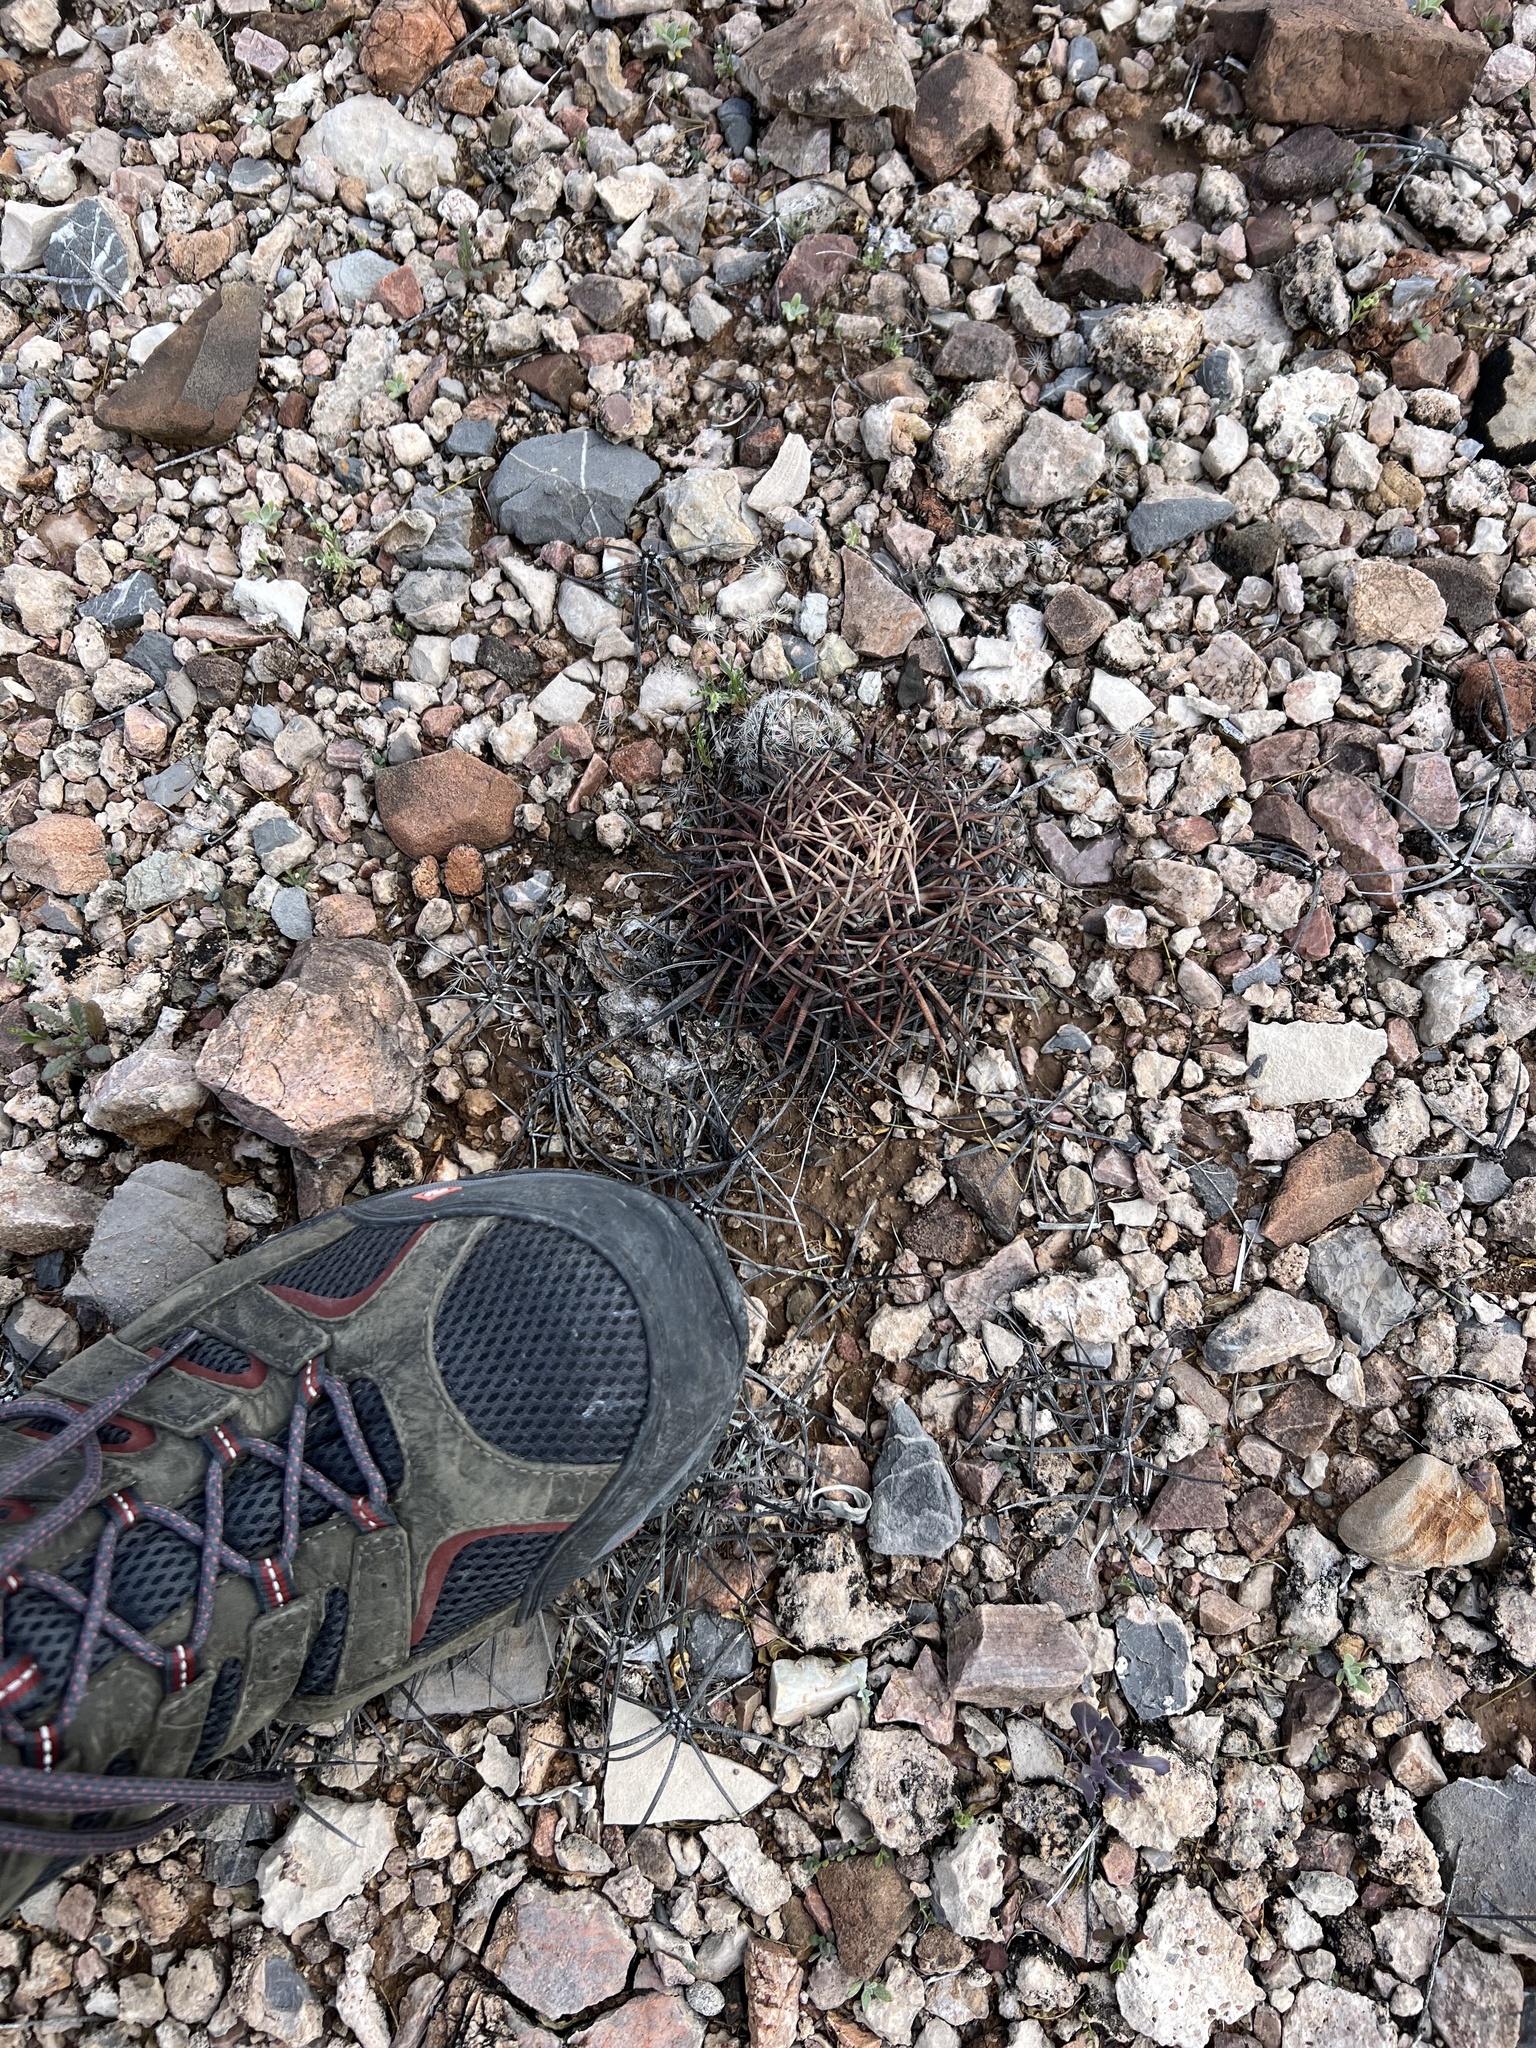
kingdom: Plantae
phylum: Tracheophyta
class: Magnoliopsida
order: Caryophyllales
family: Cactaceae
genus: Echinocactus
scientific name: Echinocactus horizonthalonius
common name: Devilshead
